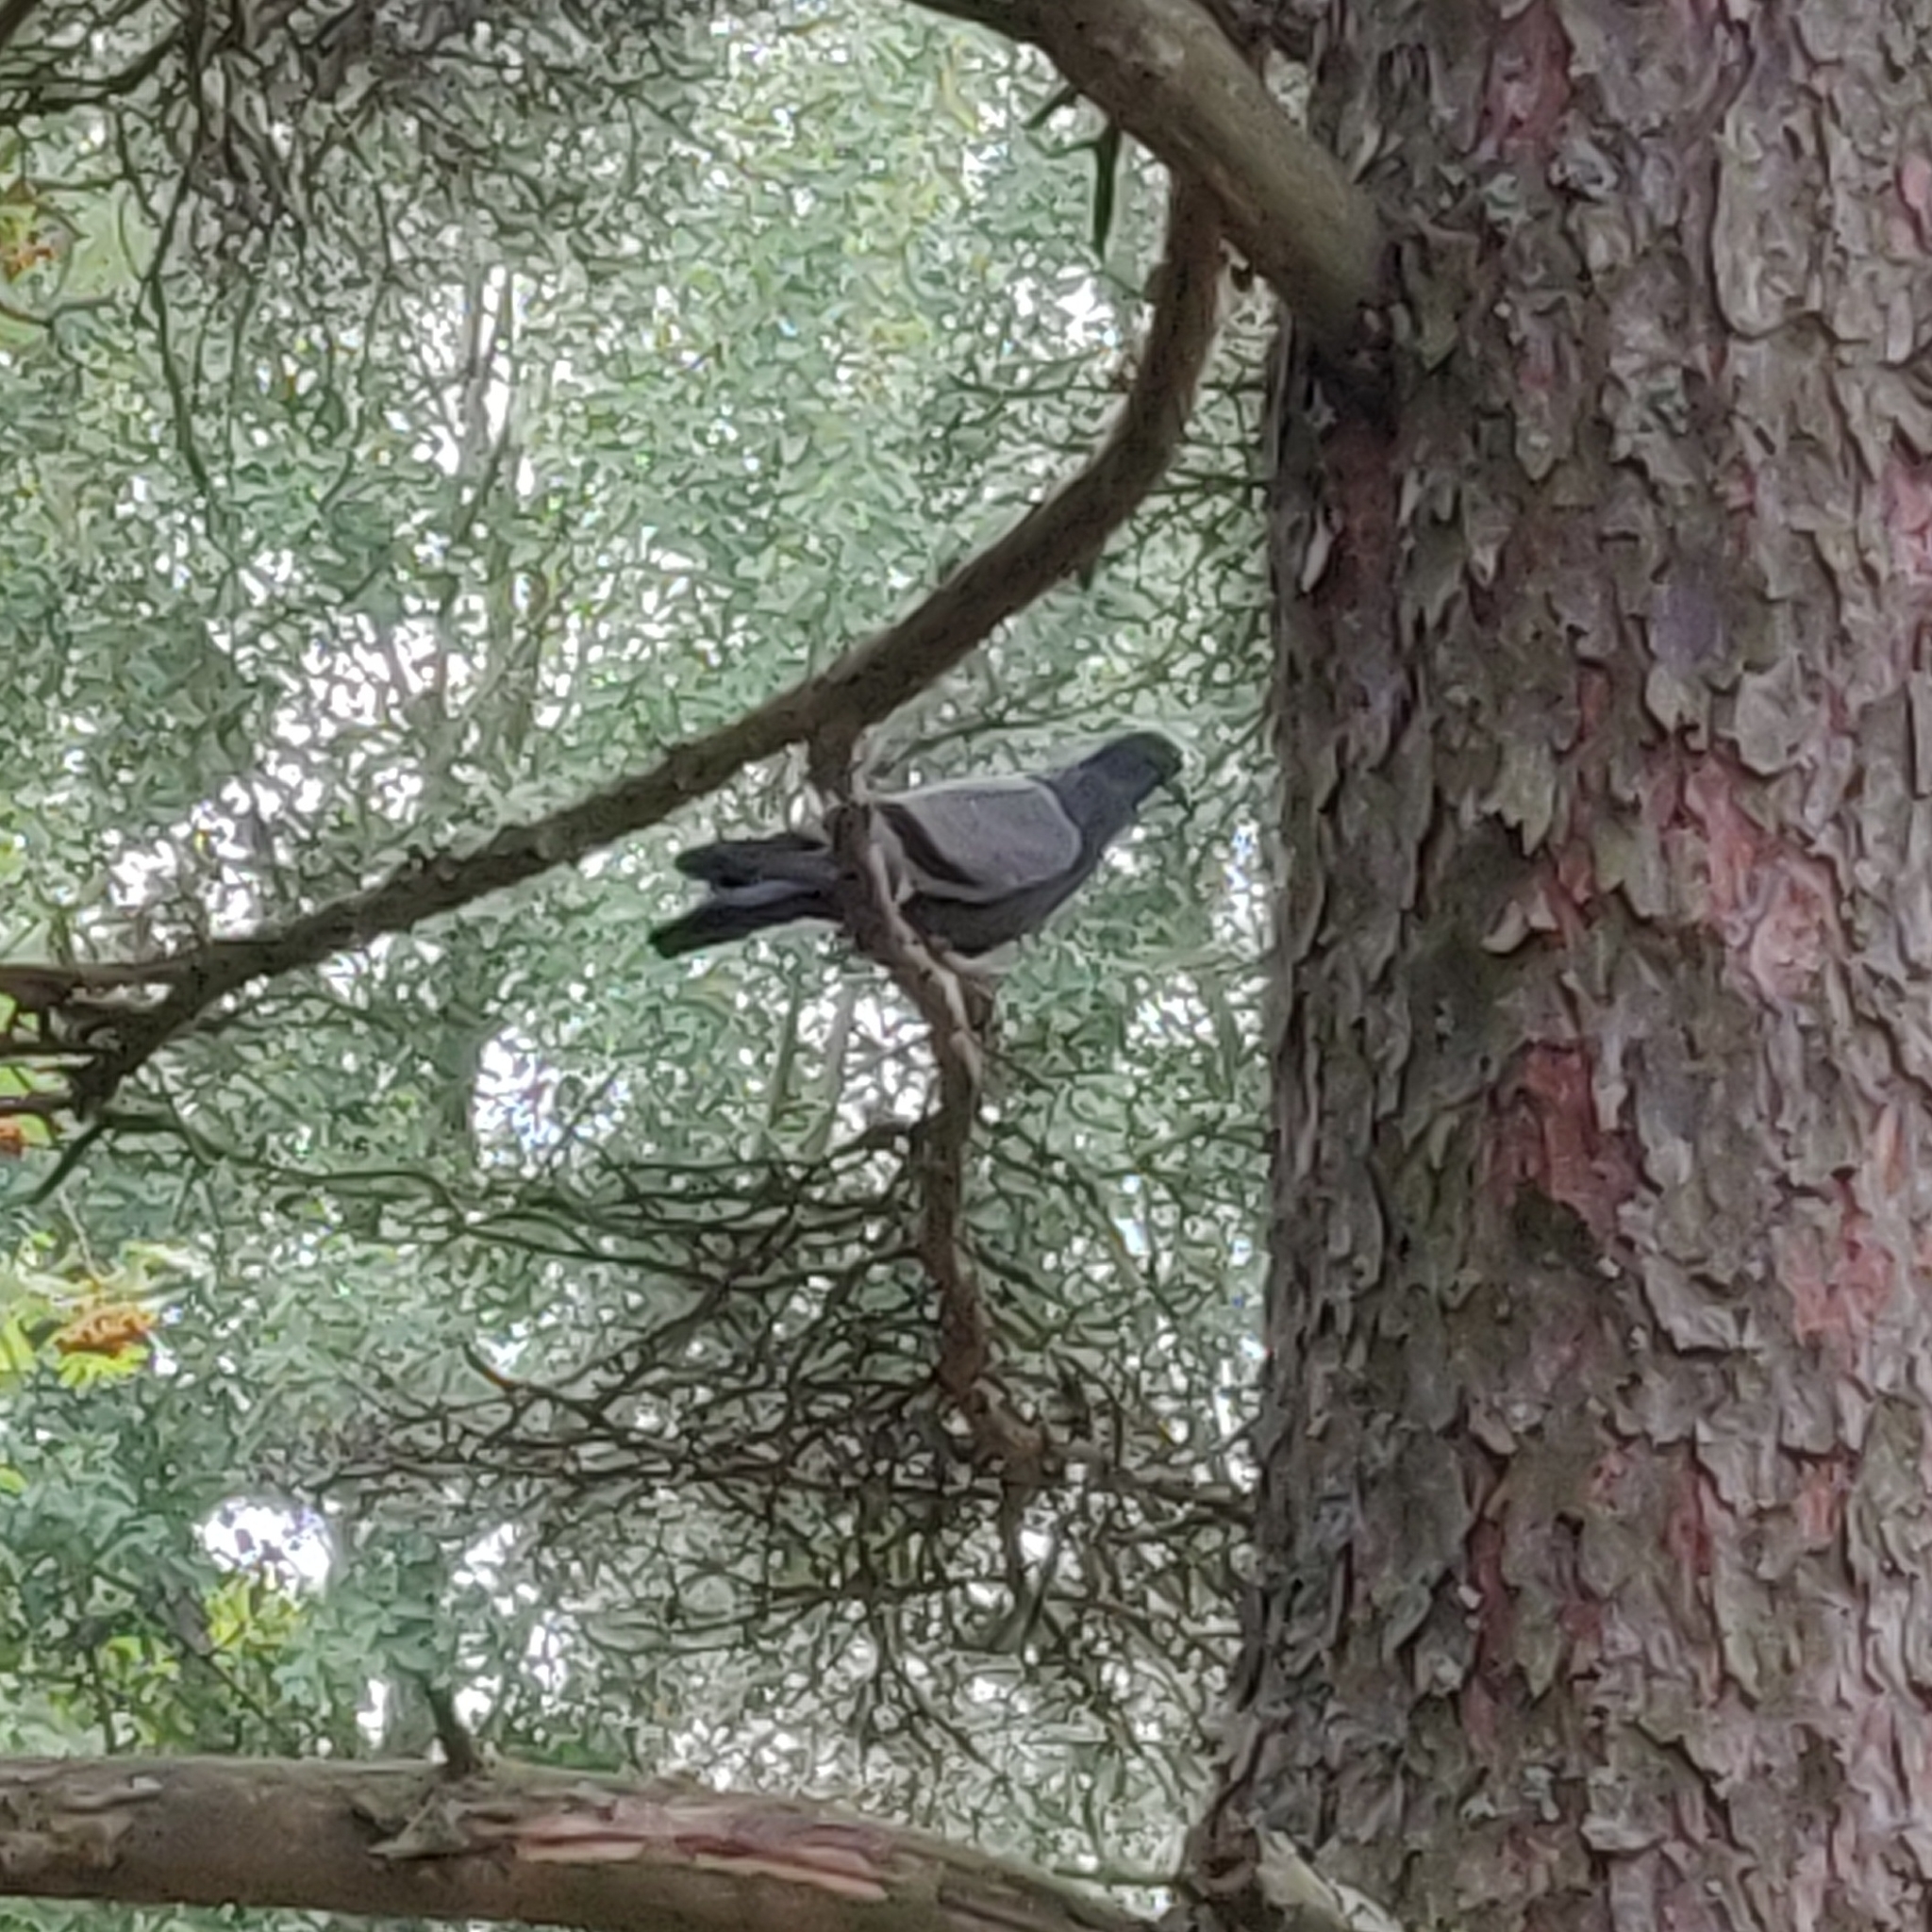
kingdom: Animalia
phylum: Chordata
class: Aves
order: Columbiformes
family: Columbidae
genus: Columba
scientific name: Columba livia
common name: Rock pigeon
